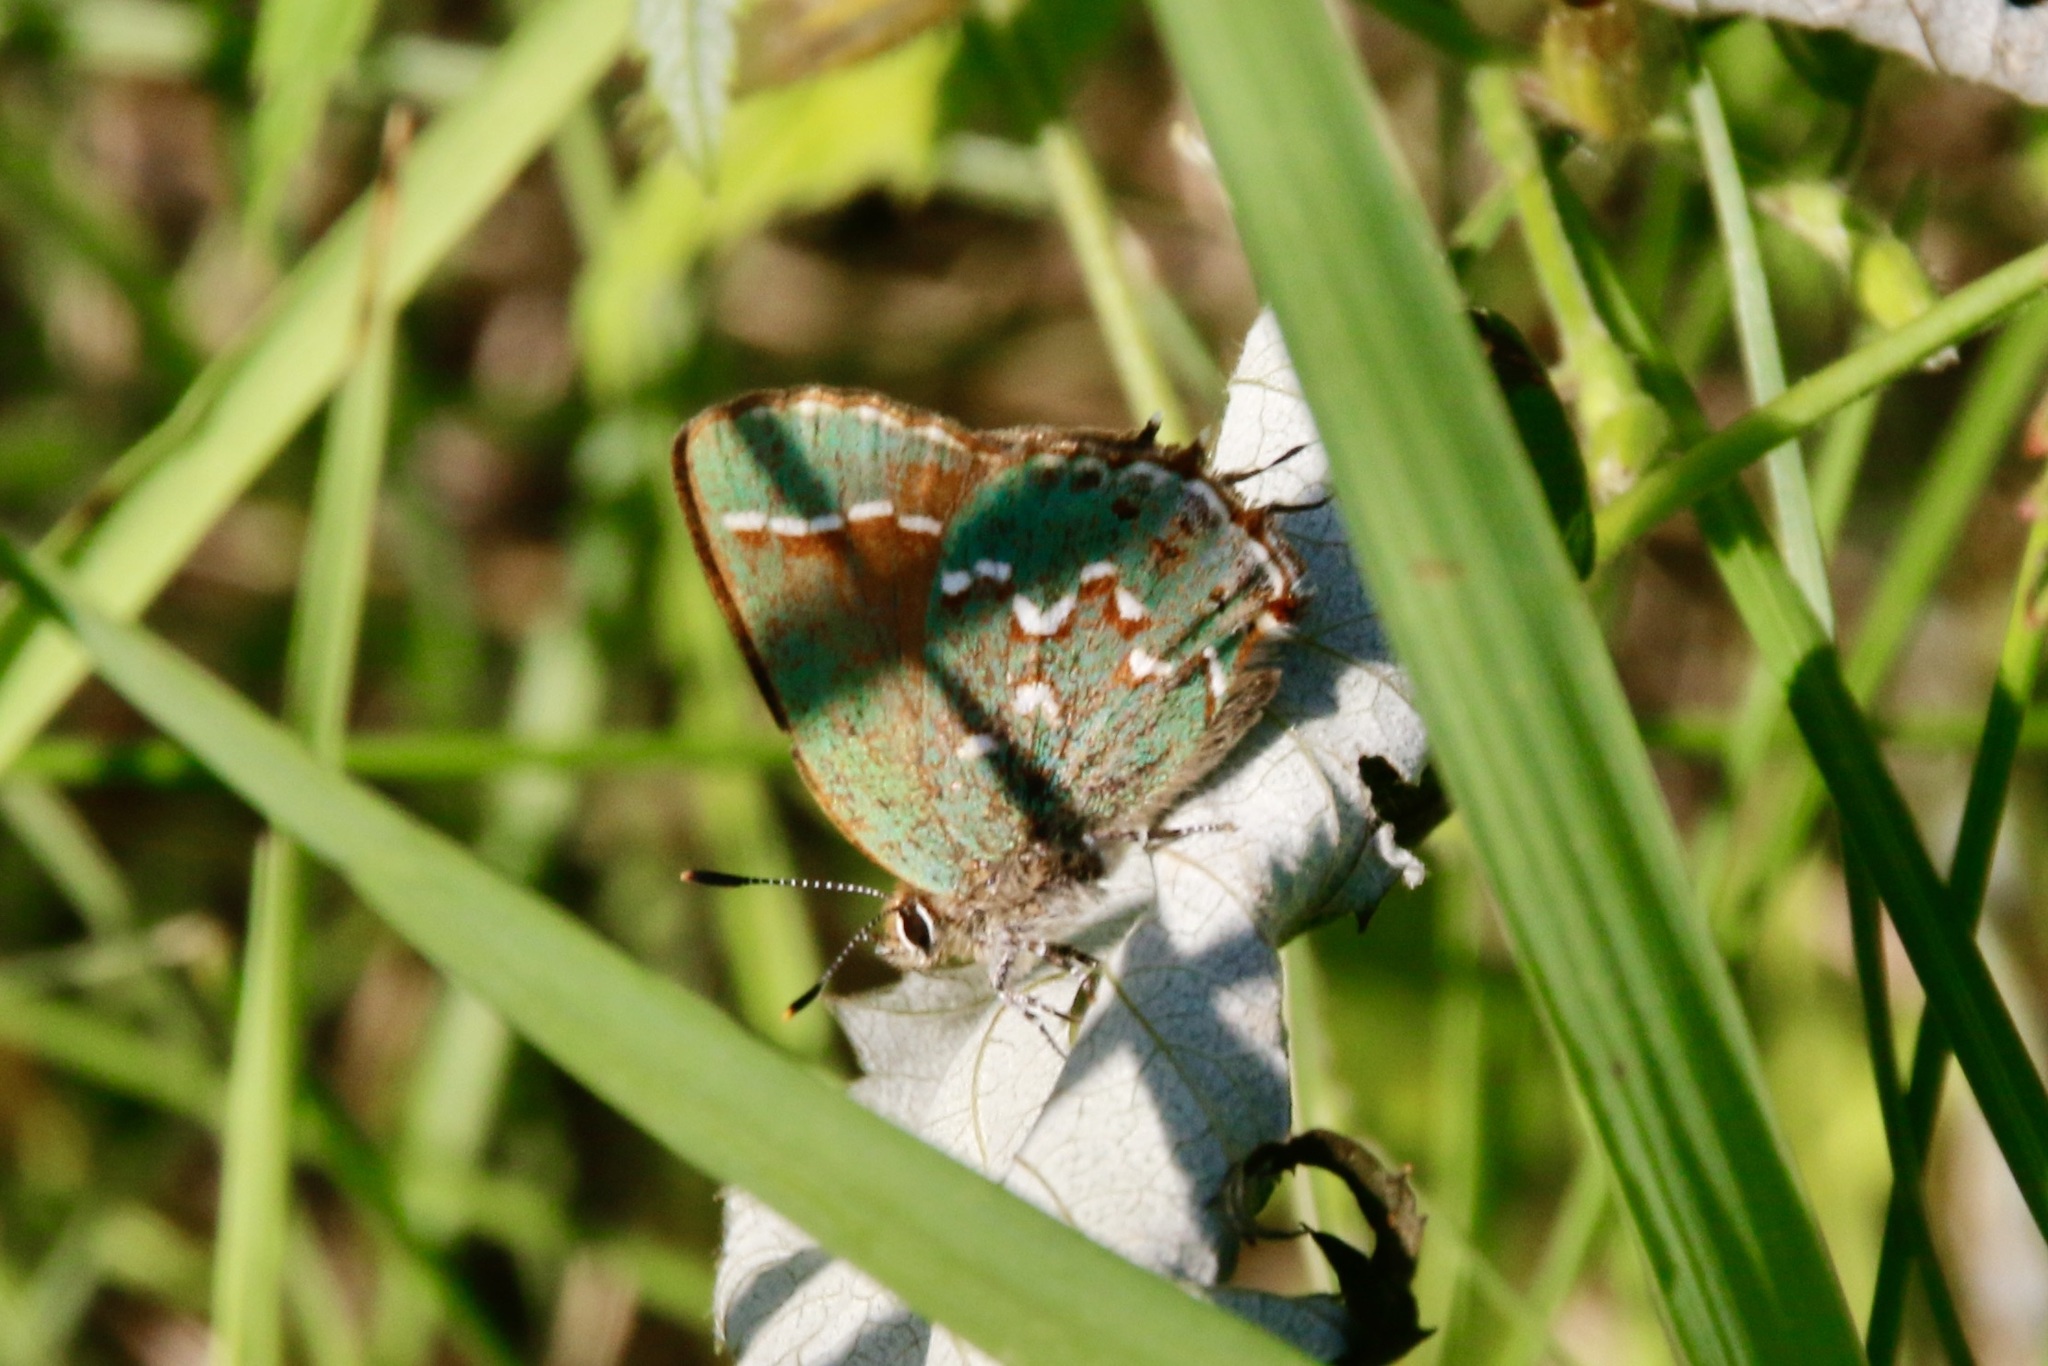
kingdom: Animalia
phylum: Arthropoda
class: Insecta
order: Lepidoptera
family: Lycaenidae
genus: Mitoura
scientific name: Mitoura gryneus
